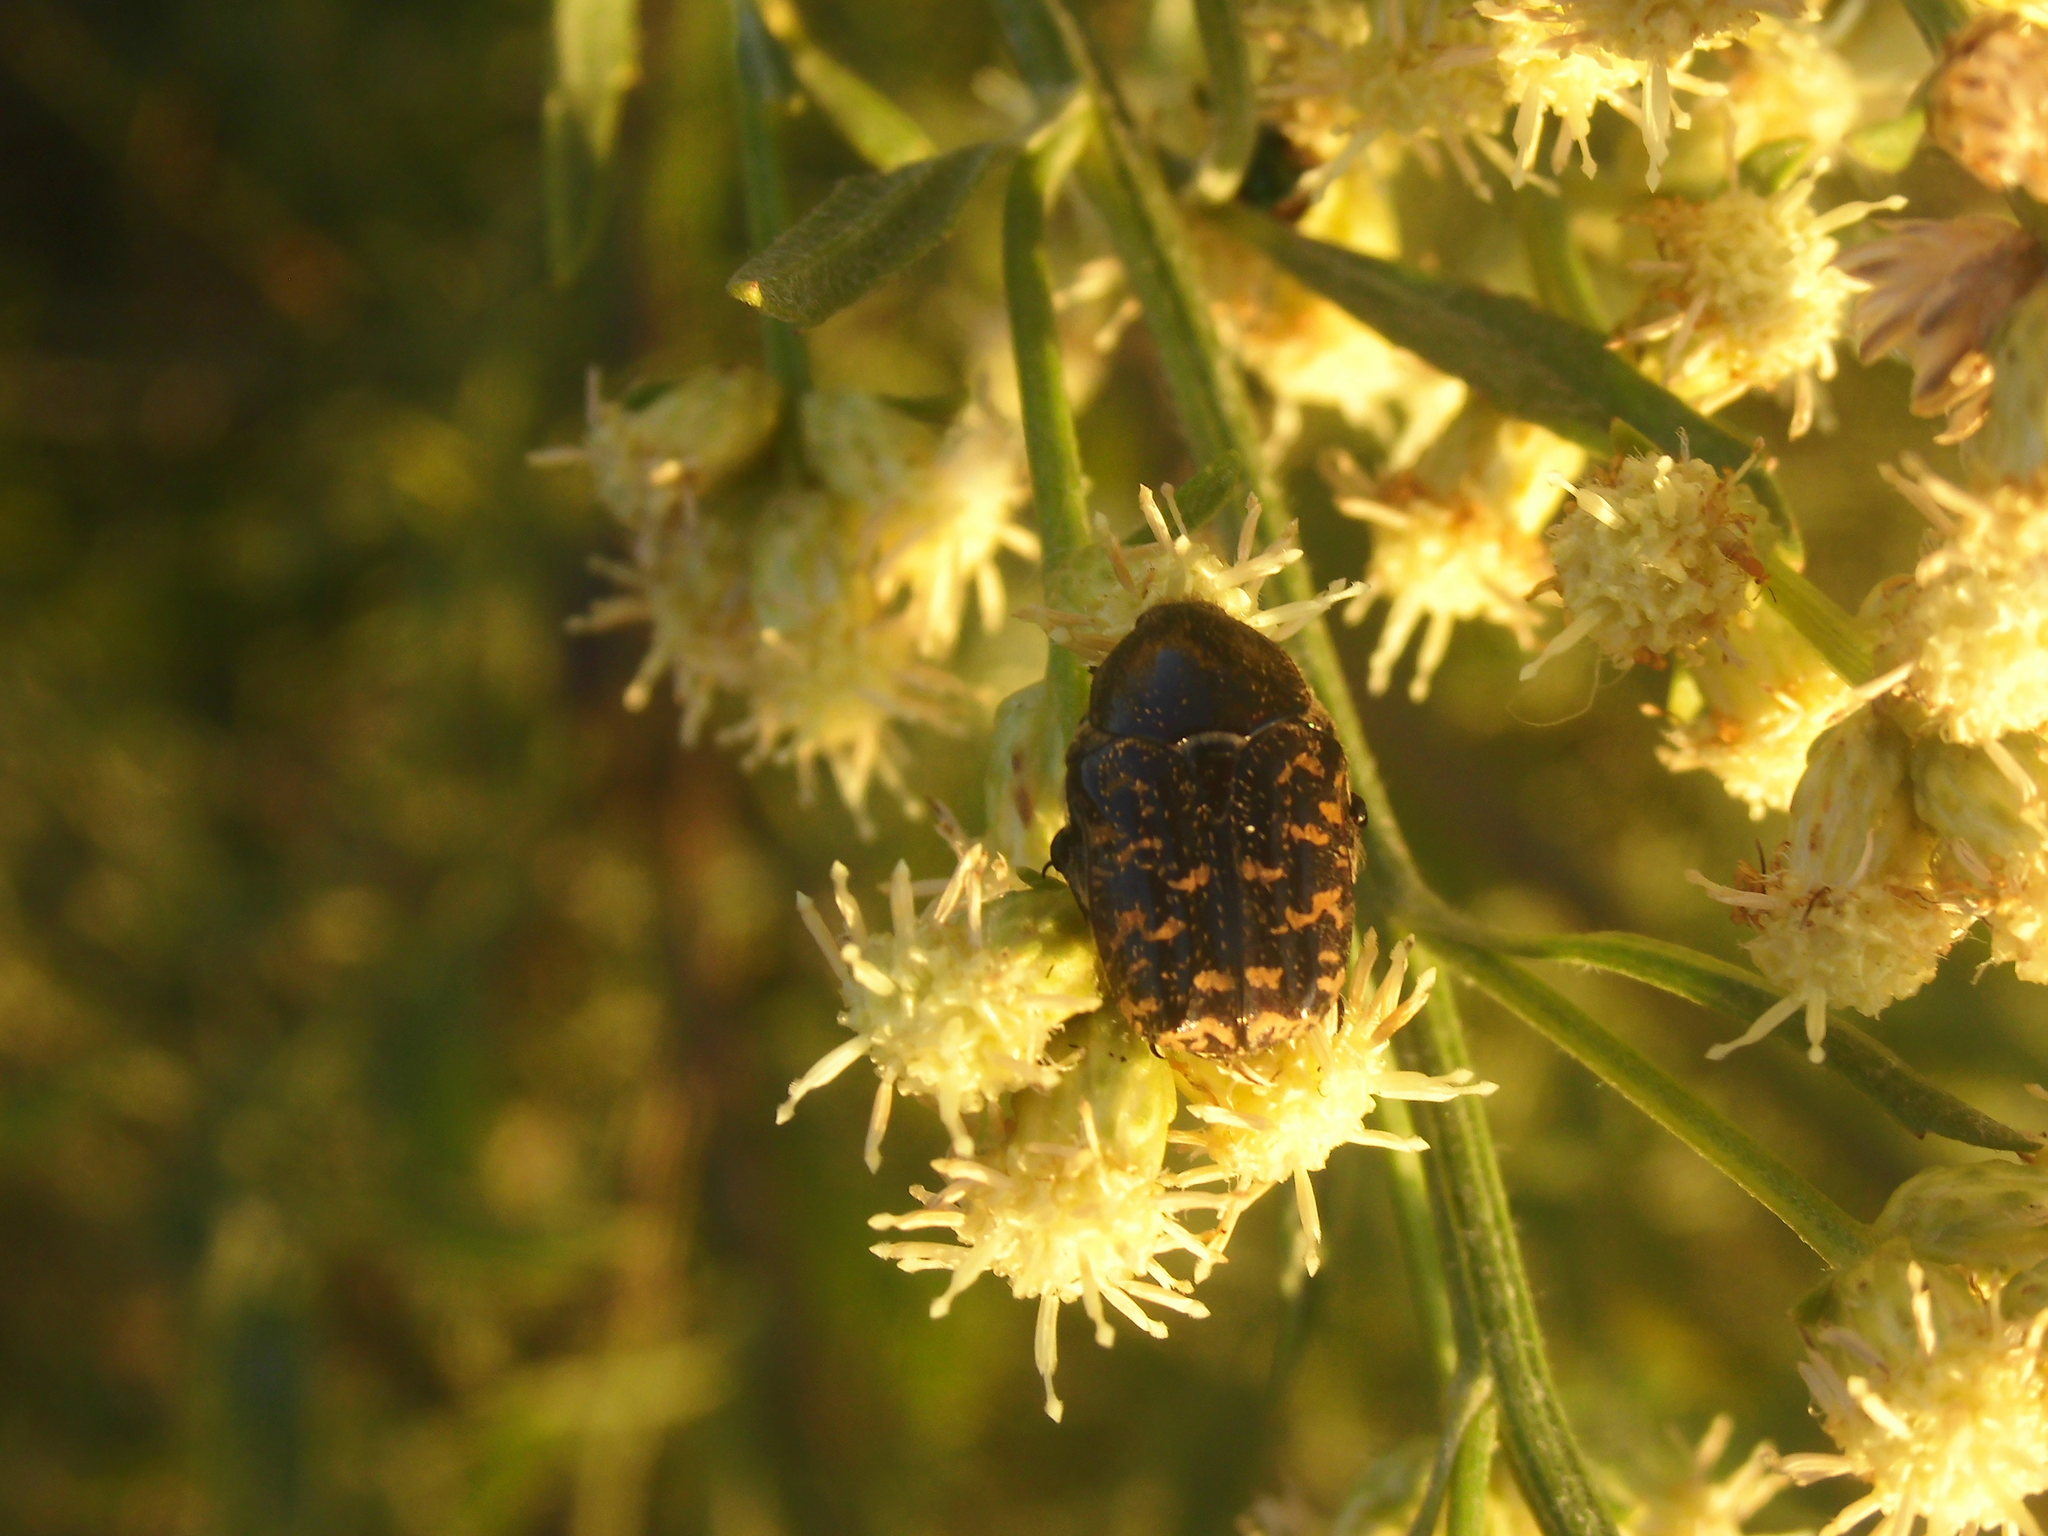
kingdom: Animalia
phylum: Arthropoda
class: Insecta
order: Coleoptera
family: Scarabaeidae
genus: Euphoria
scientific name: Euphoria lurida
